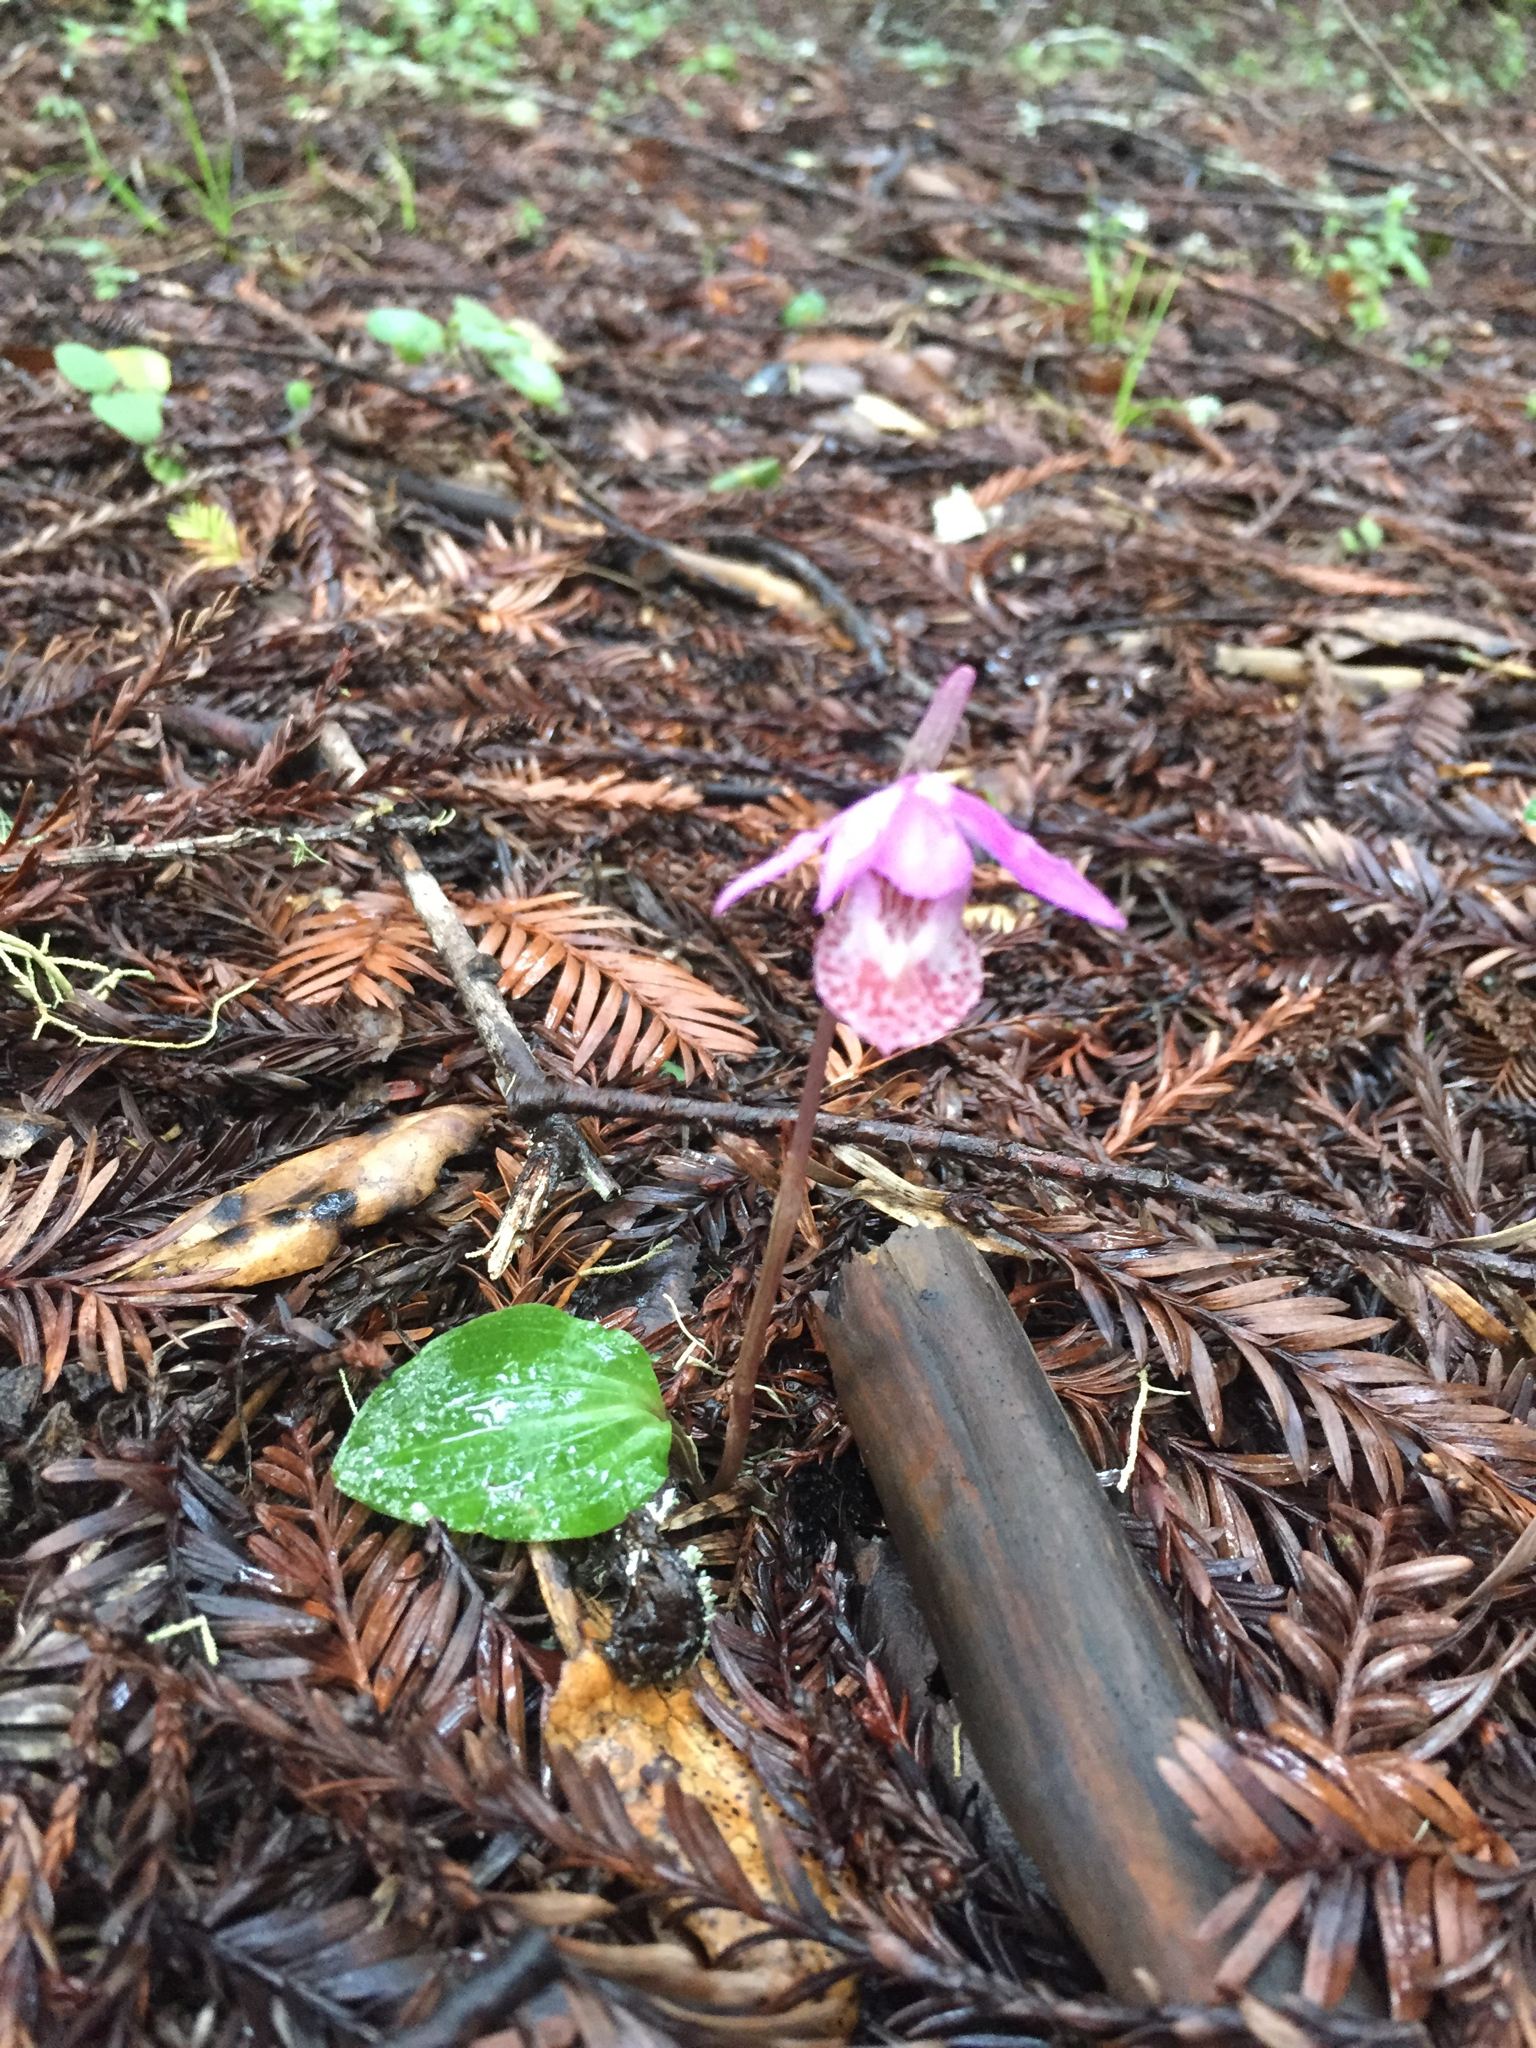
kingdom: Plantae
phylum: Tracheophyta
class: Liliopsida
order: Asparagales
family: Orchidaceae
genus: Calypso
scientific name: Calypso bulbosa
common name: Calypso
